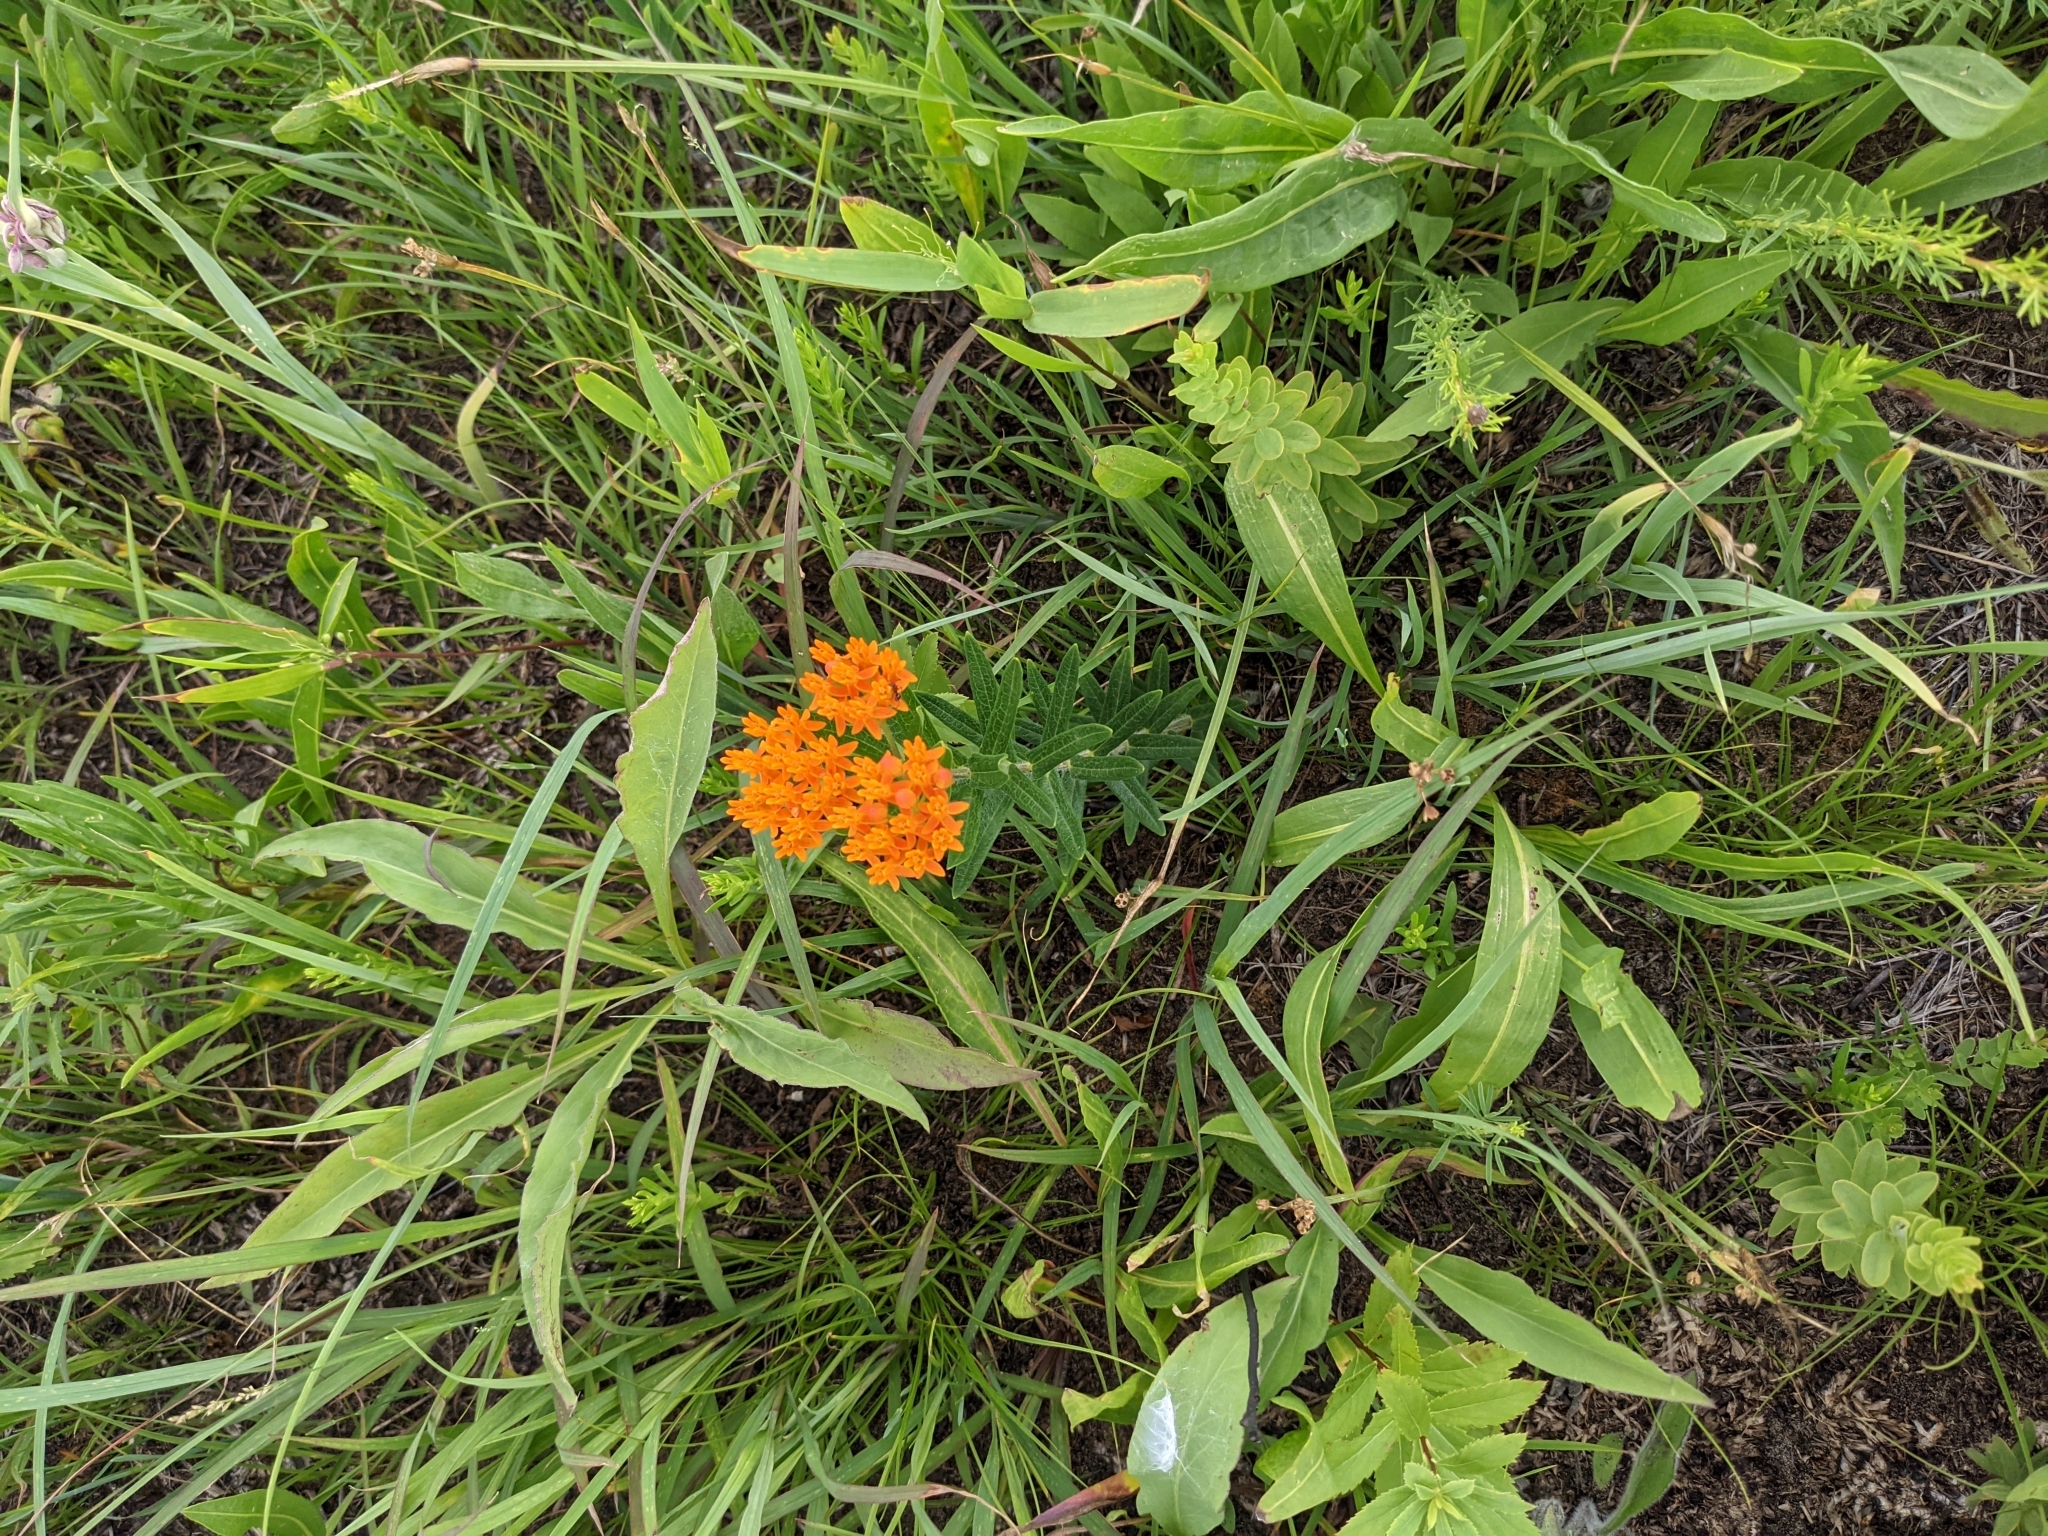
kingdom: Plantae
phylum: Tracheophyta
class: Magnoliopsida
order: Gentianales
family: Apocynaceae
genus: Asclepias
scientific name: Asclepias tuberosa
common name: Butterfly milkweed
